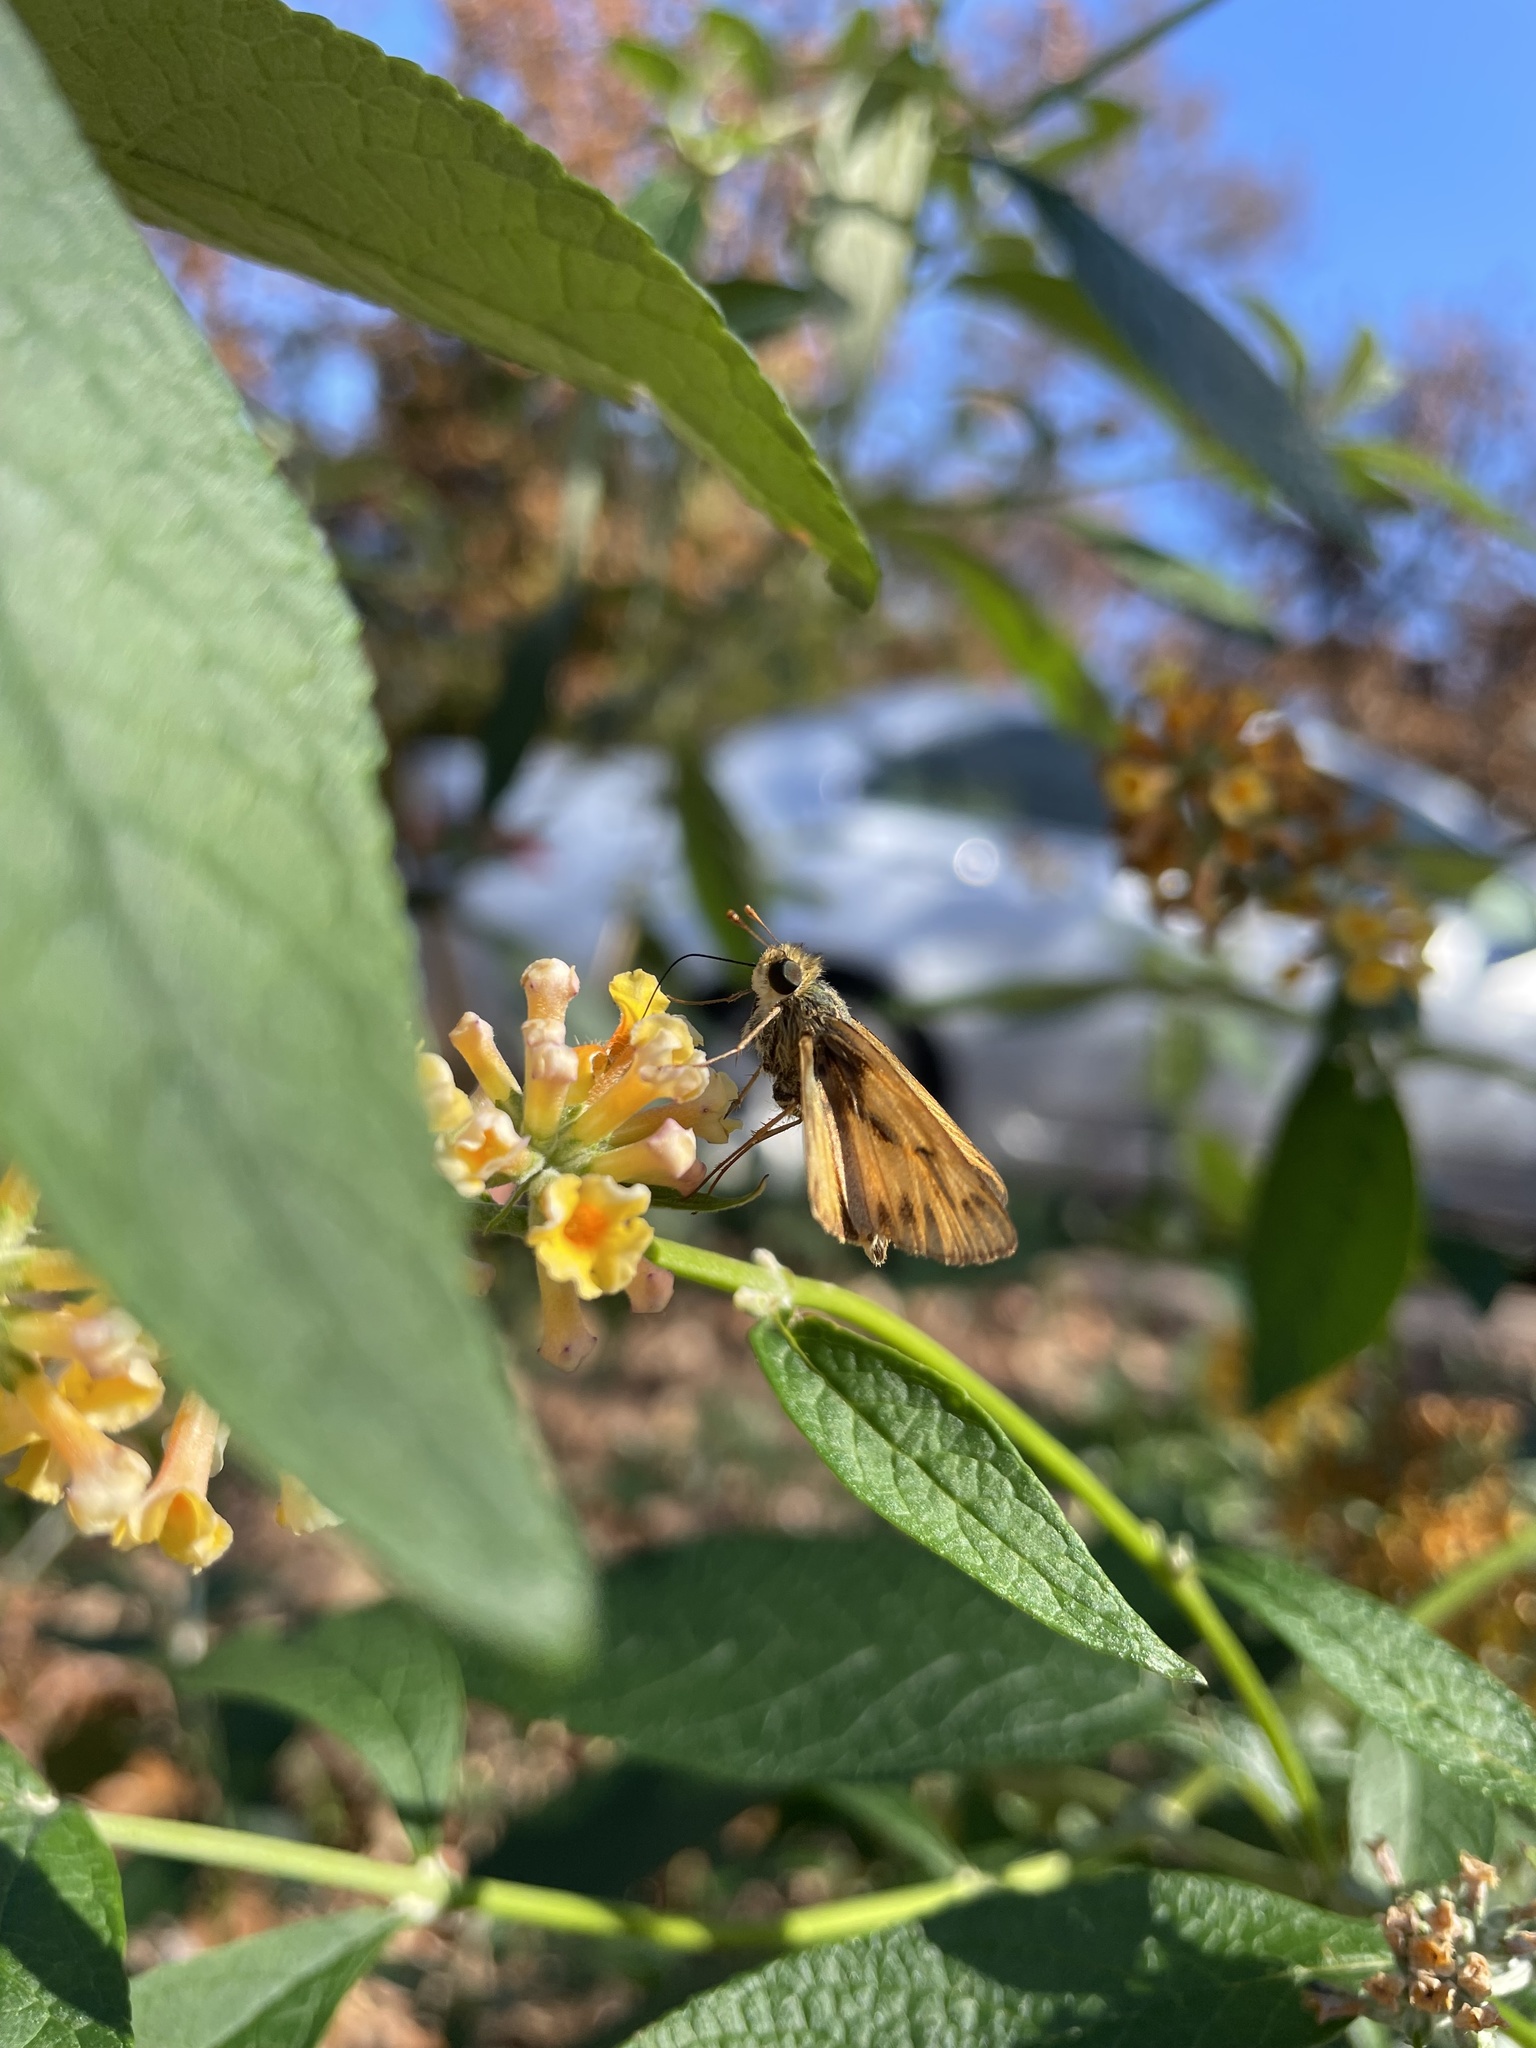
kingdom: Animalia
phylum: Arthropoda
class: Insecta
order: Lepidoptera
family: Hesperiidae
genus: Hylephila
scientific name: Hylephila phyleus
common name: Fiery skipper
